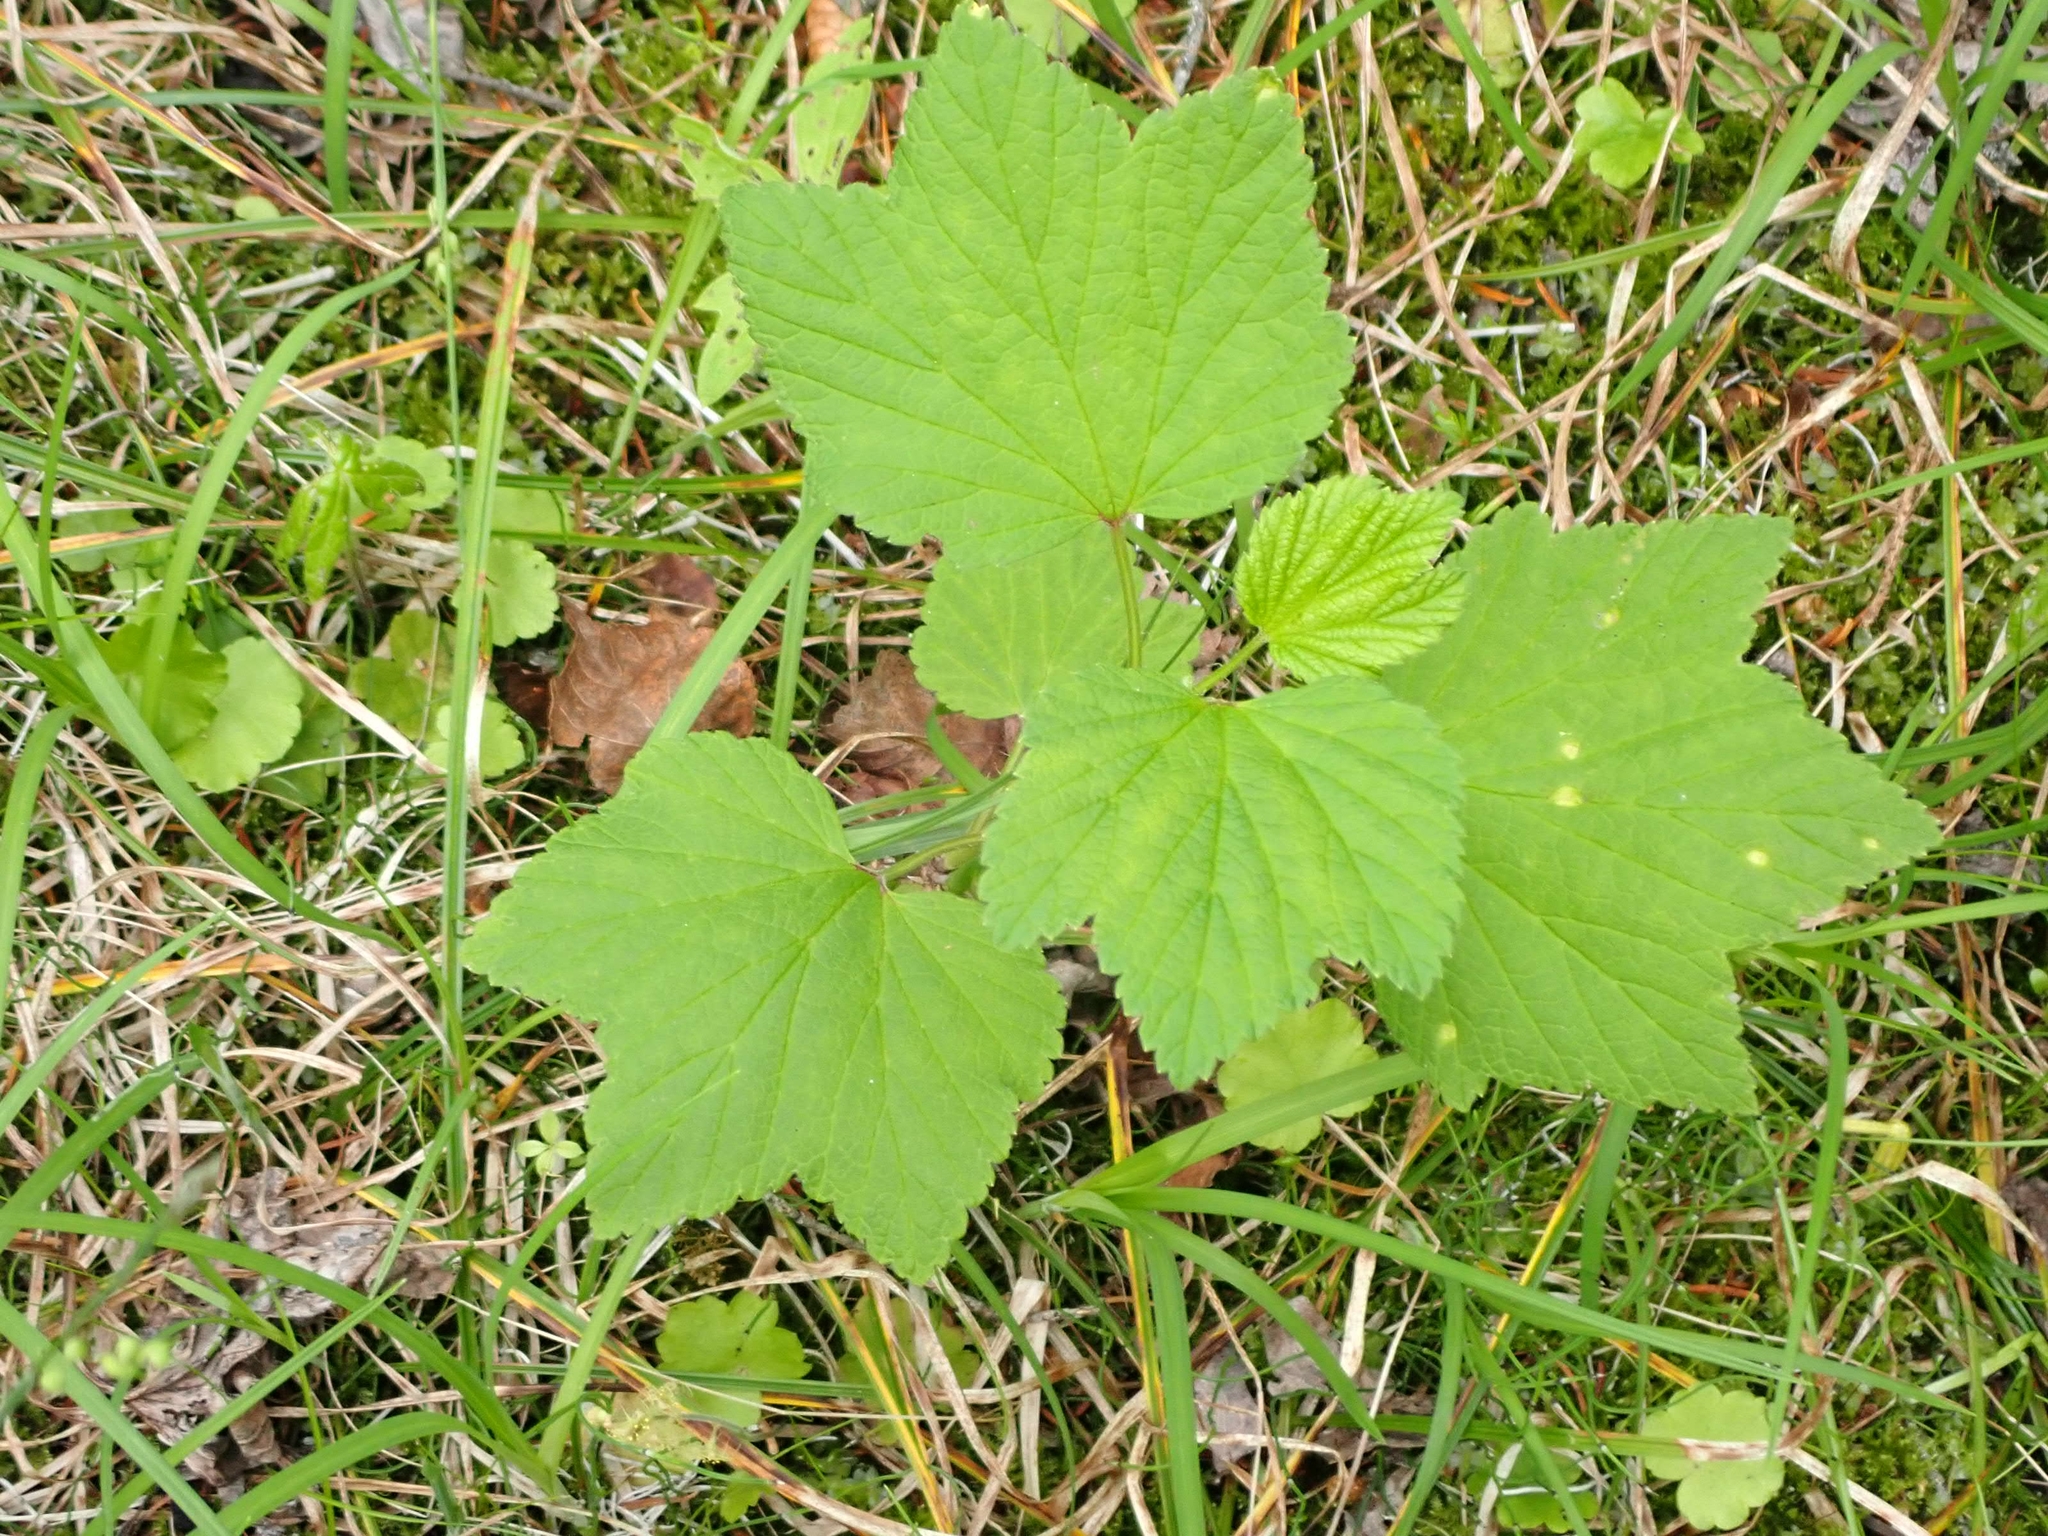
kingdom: Plantae
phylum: Tracheophyta
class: Magnoliopsida
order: Saxifragales
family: Grossulariaceae
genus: Ribes
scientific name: Ribes triste
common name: Swamp red currant
